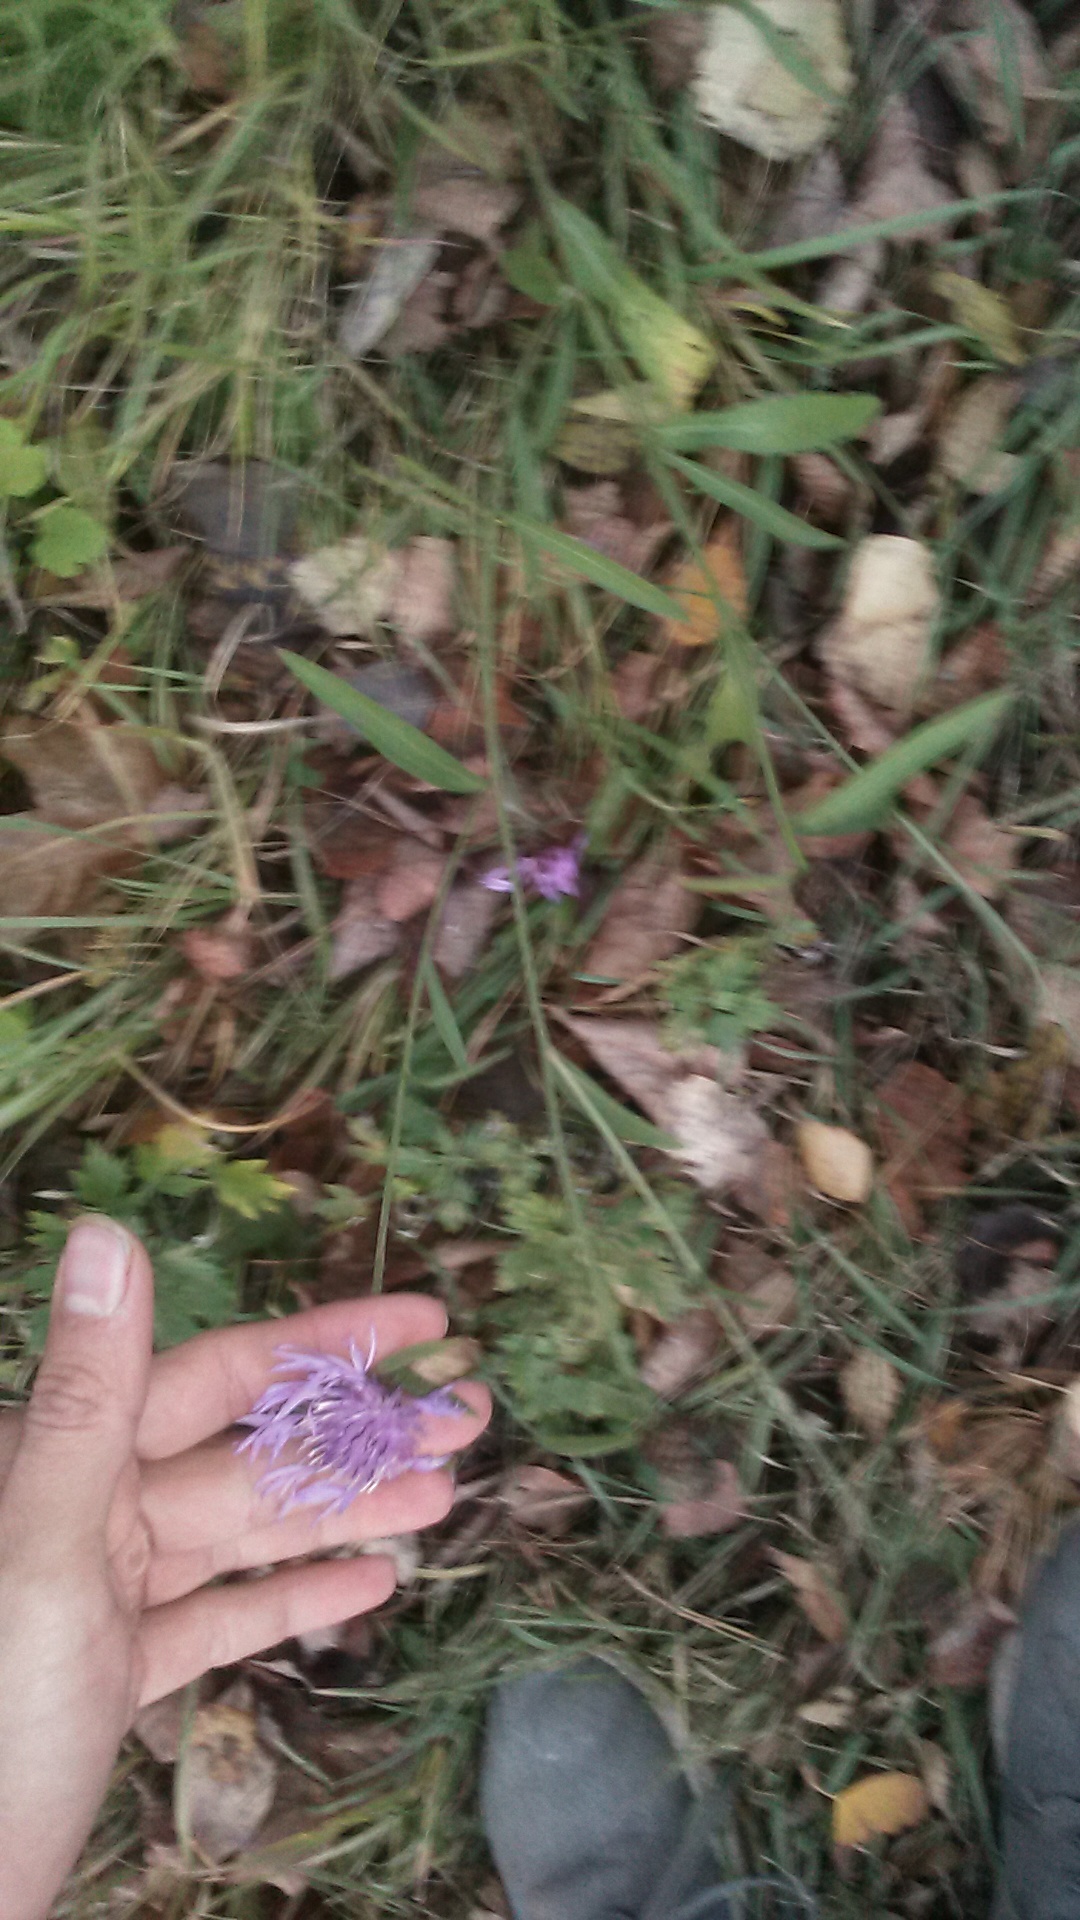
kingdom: Plantae
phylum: Tracheophyta
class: Magnoliopsida
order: Asterales
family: Asteraceae
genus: Centaurea
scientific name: Centaurea jacea
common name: Brown knapweed
